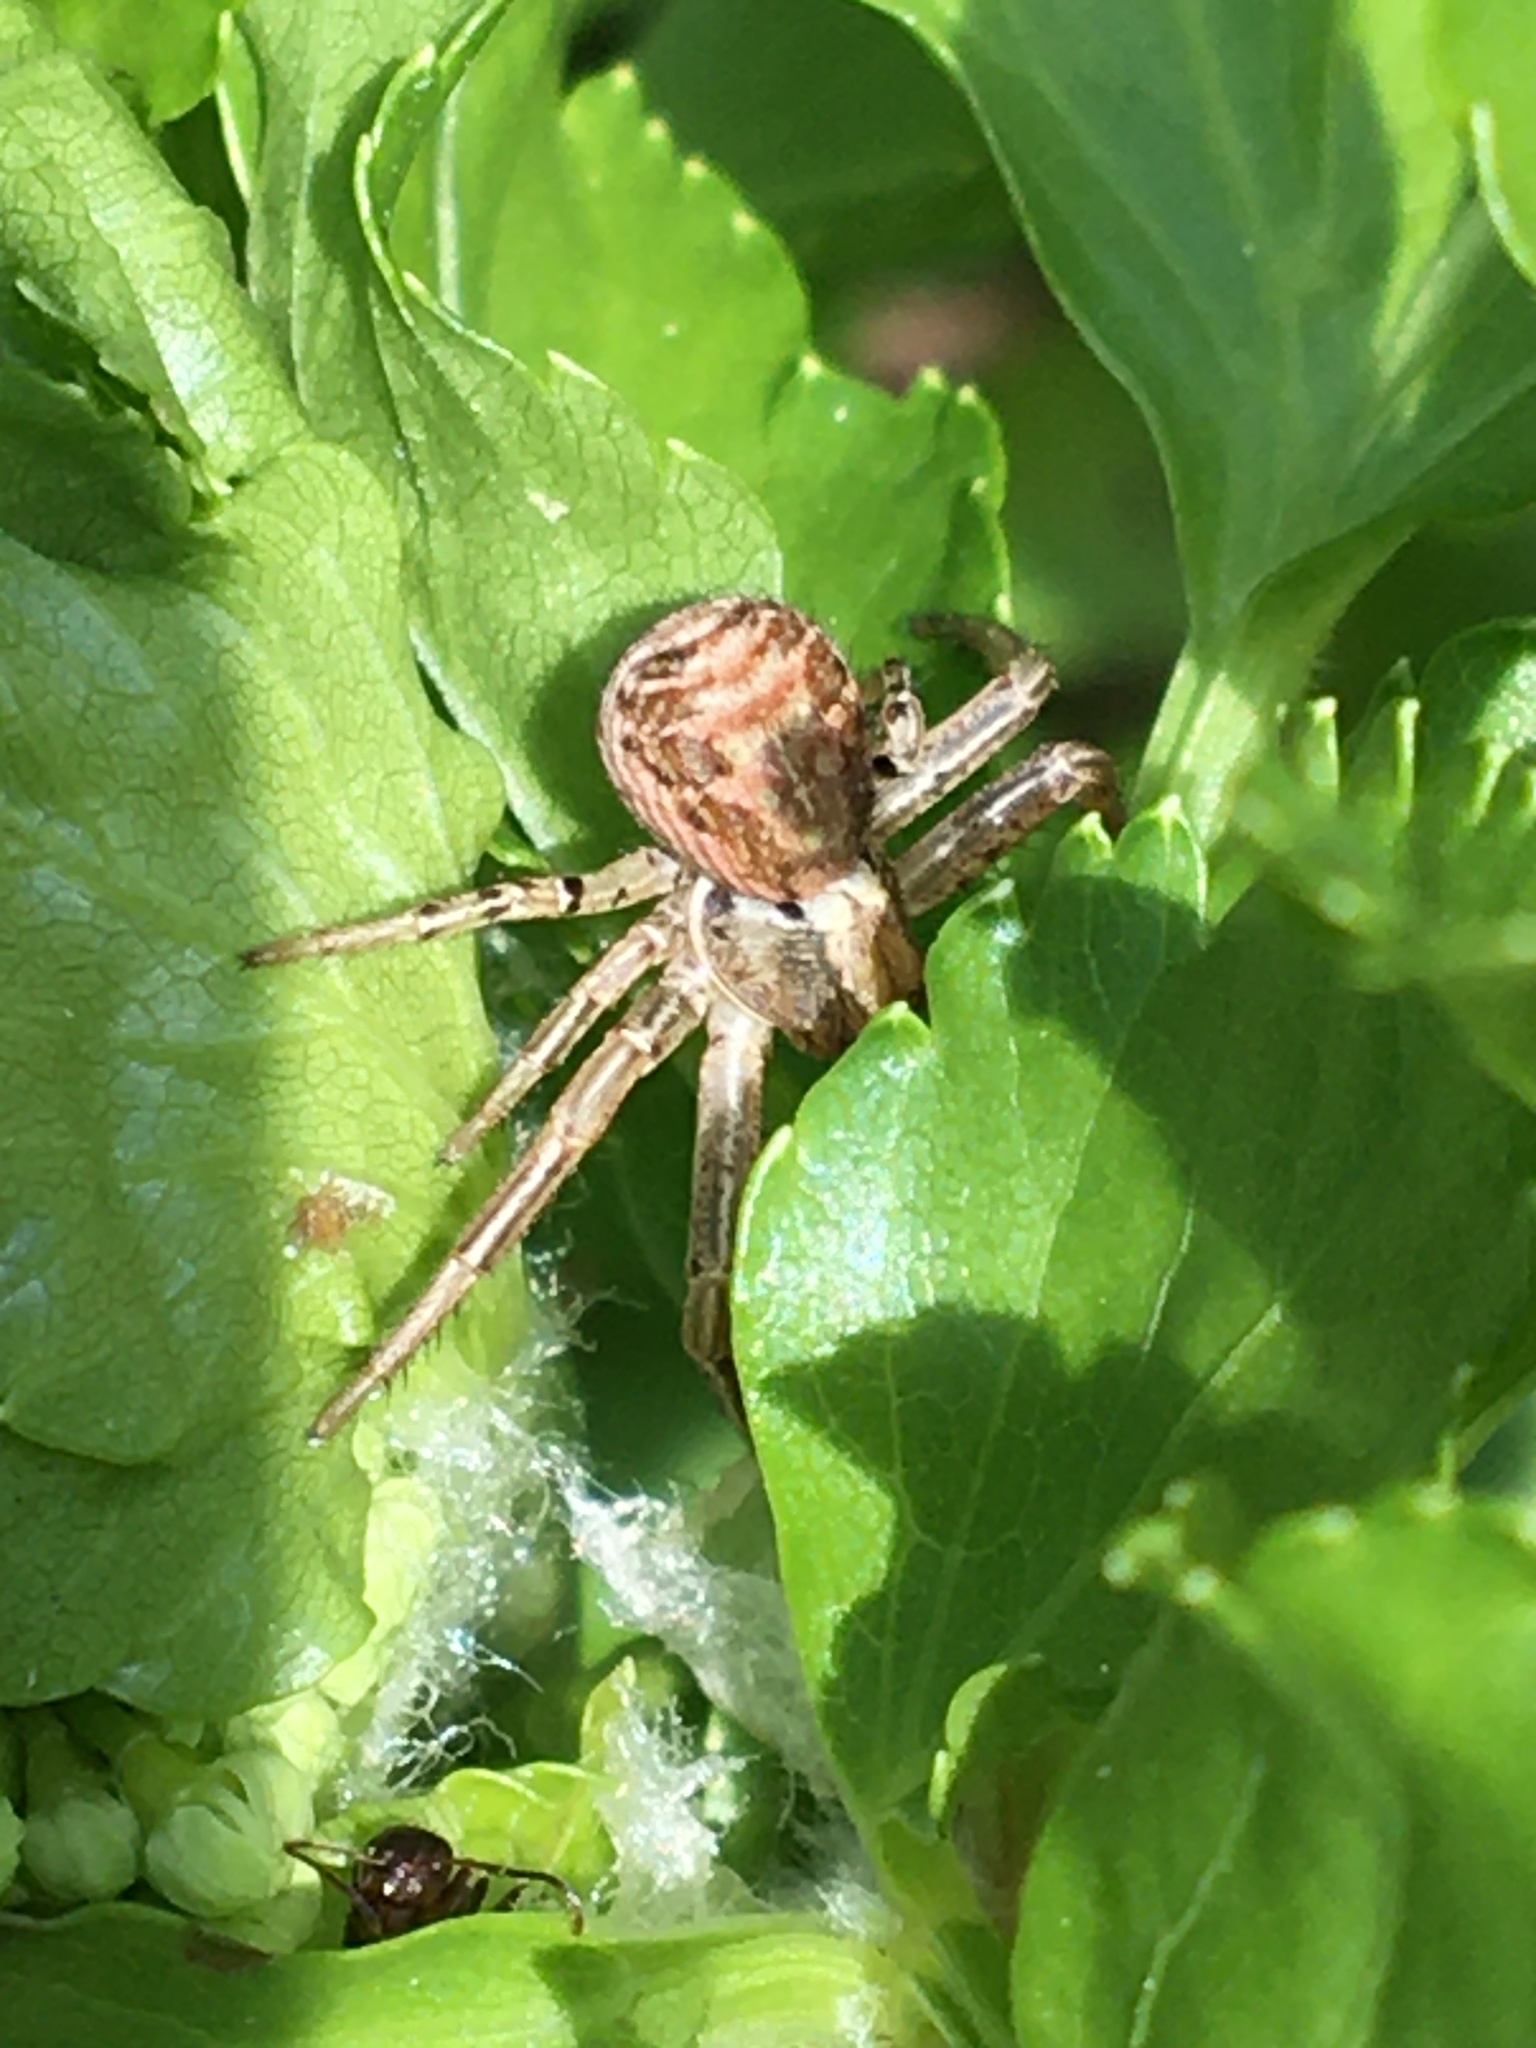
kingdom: Animalia
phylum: Arthropoda
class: Arachnida
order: Araneae
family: Thomisidae
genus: Xysticus
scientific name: Xysticus
